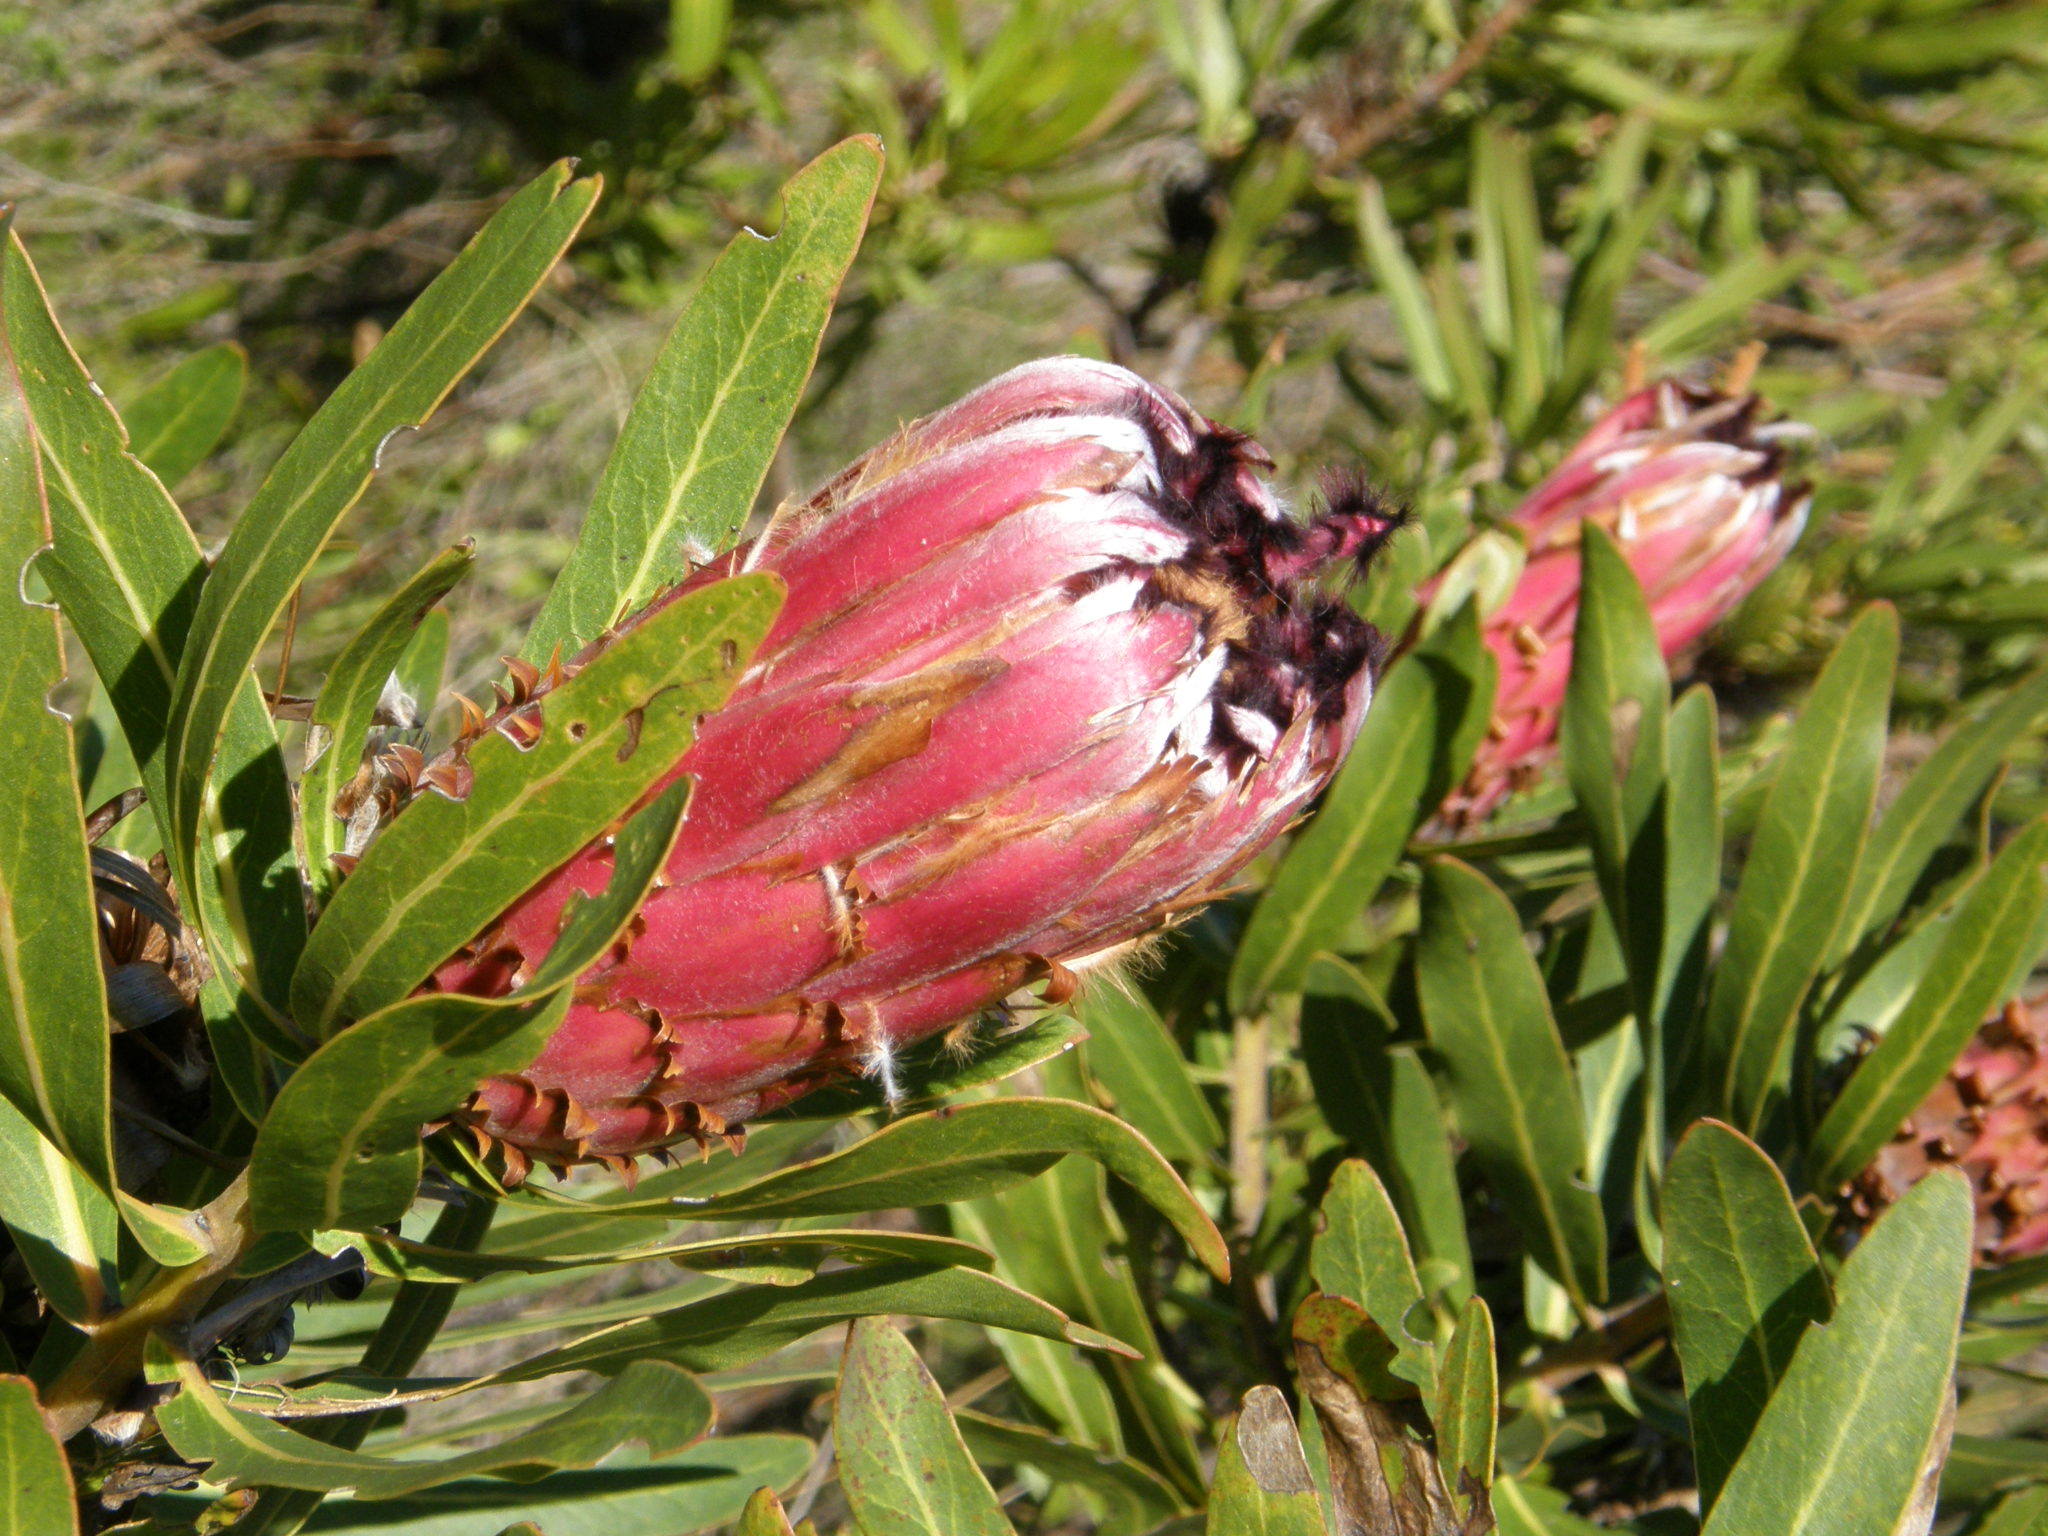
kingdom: Plantae
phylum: Tracheophyta
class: Magnoliopsida
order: Proteales
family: Proteaceae
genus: Protea
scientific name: Protea neriifolia
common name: Blue sugarbush
